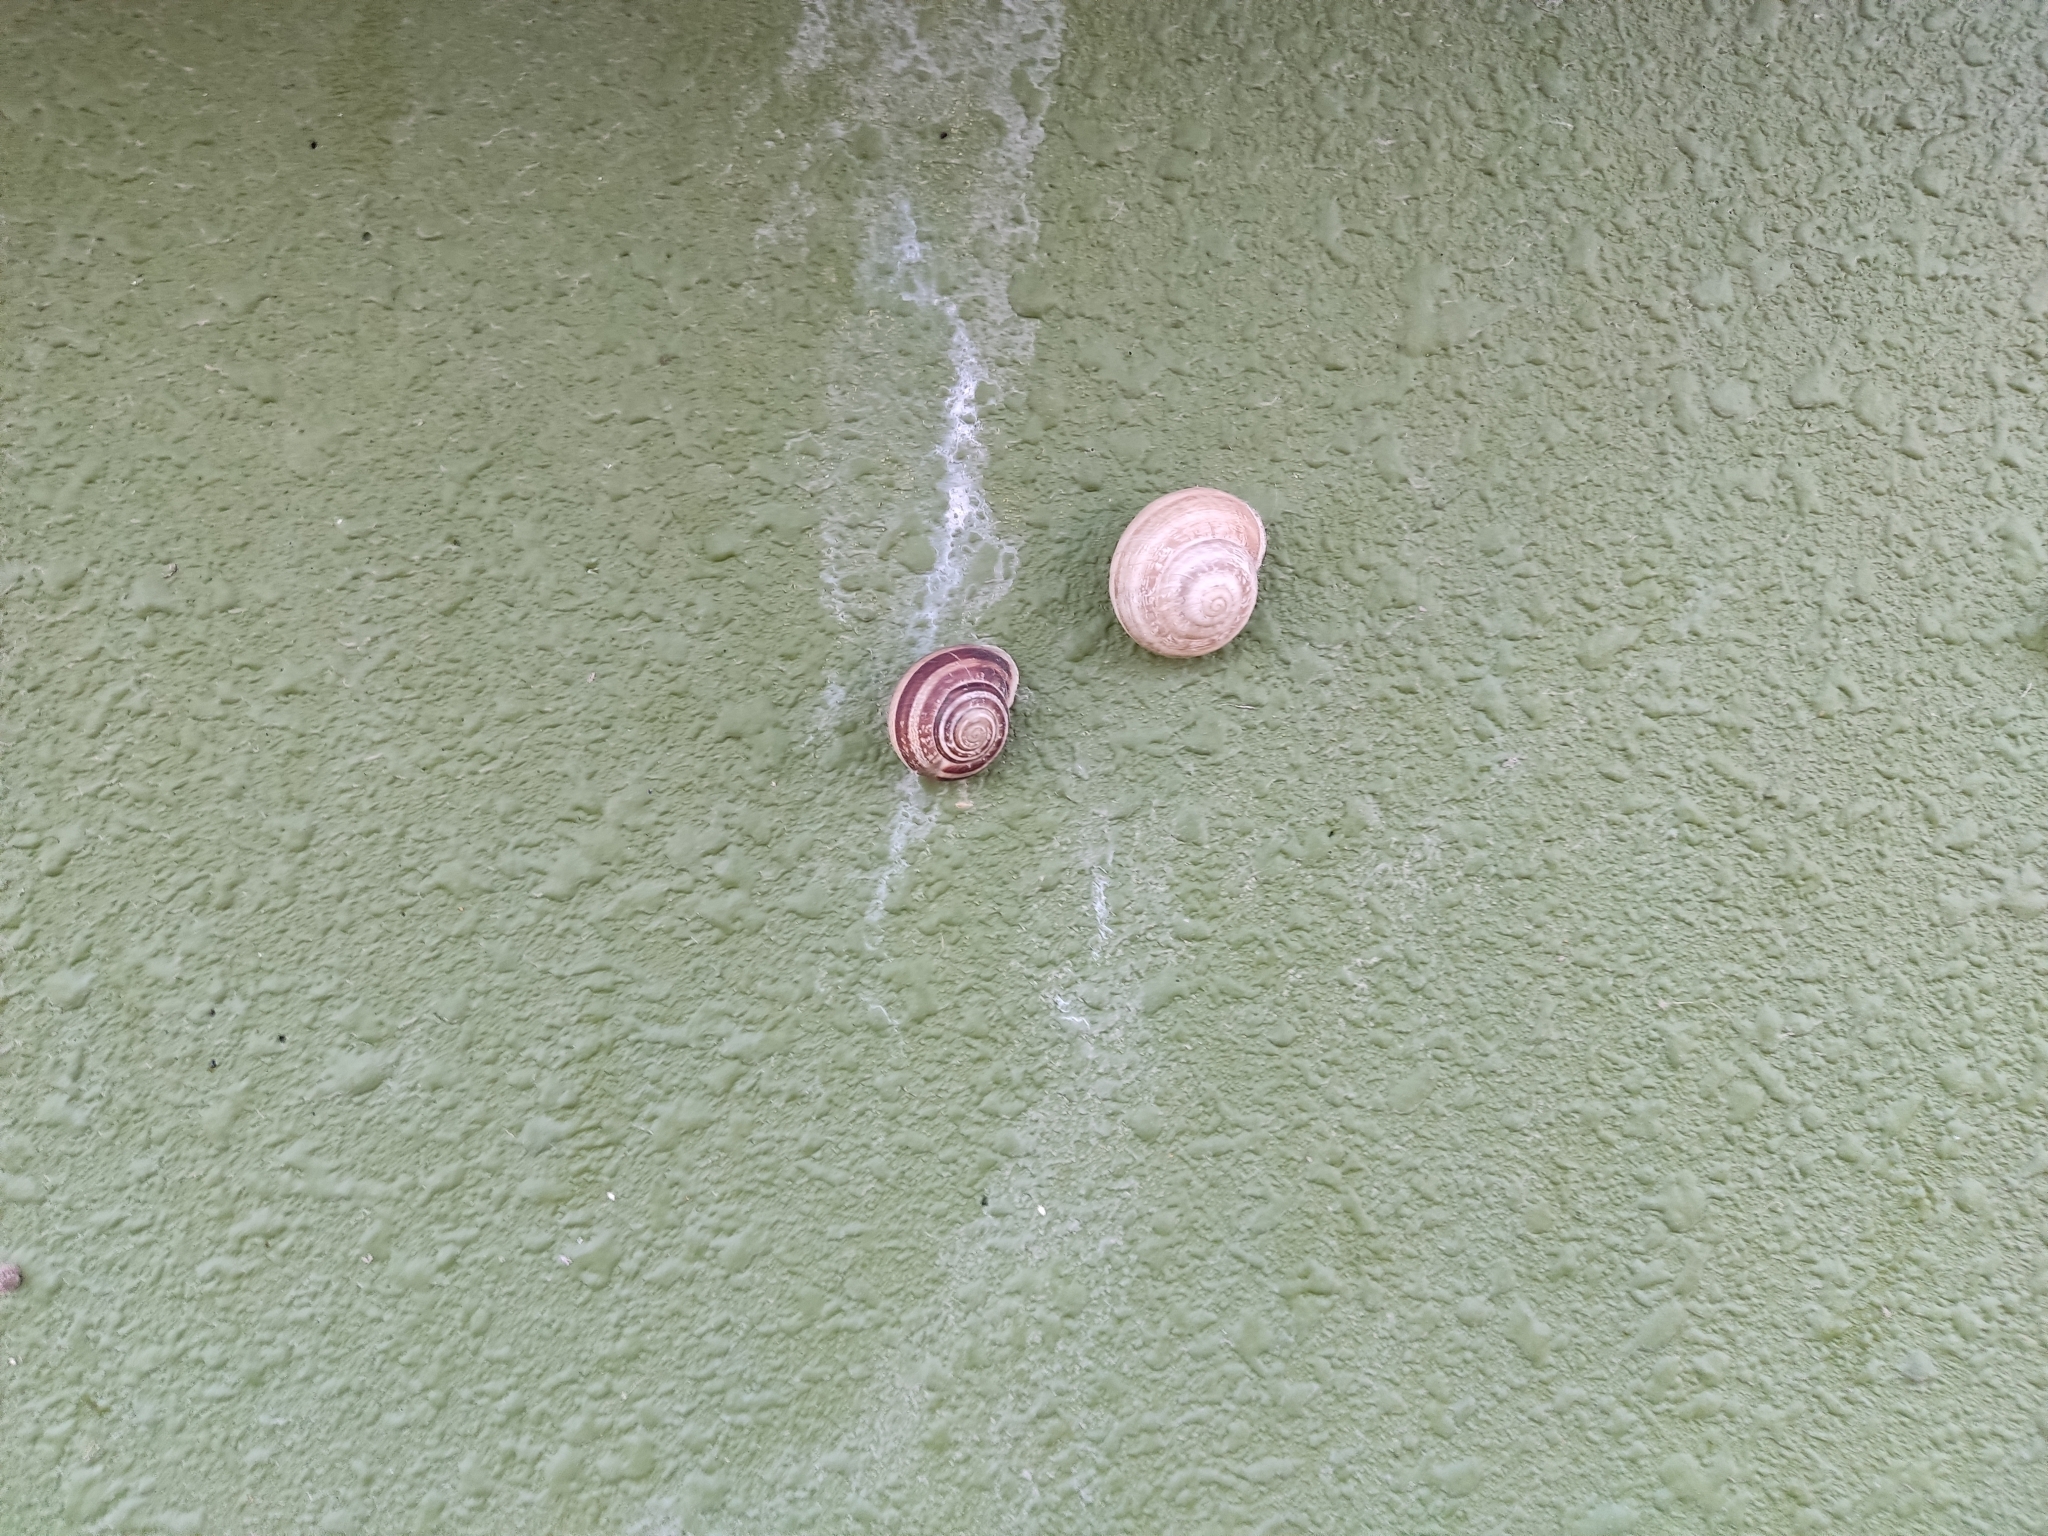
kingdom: Animalia
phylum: Mollusca
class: Gastropoda
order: Stylommatophora
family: Helicidae
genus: Eobania
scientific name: Eobania vermiculata
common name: Chocolateband snail
